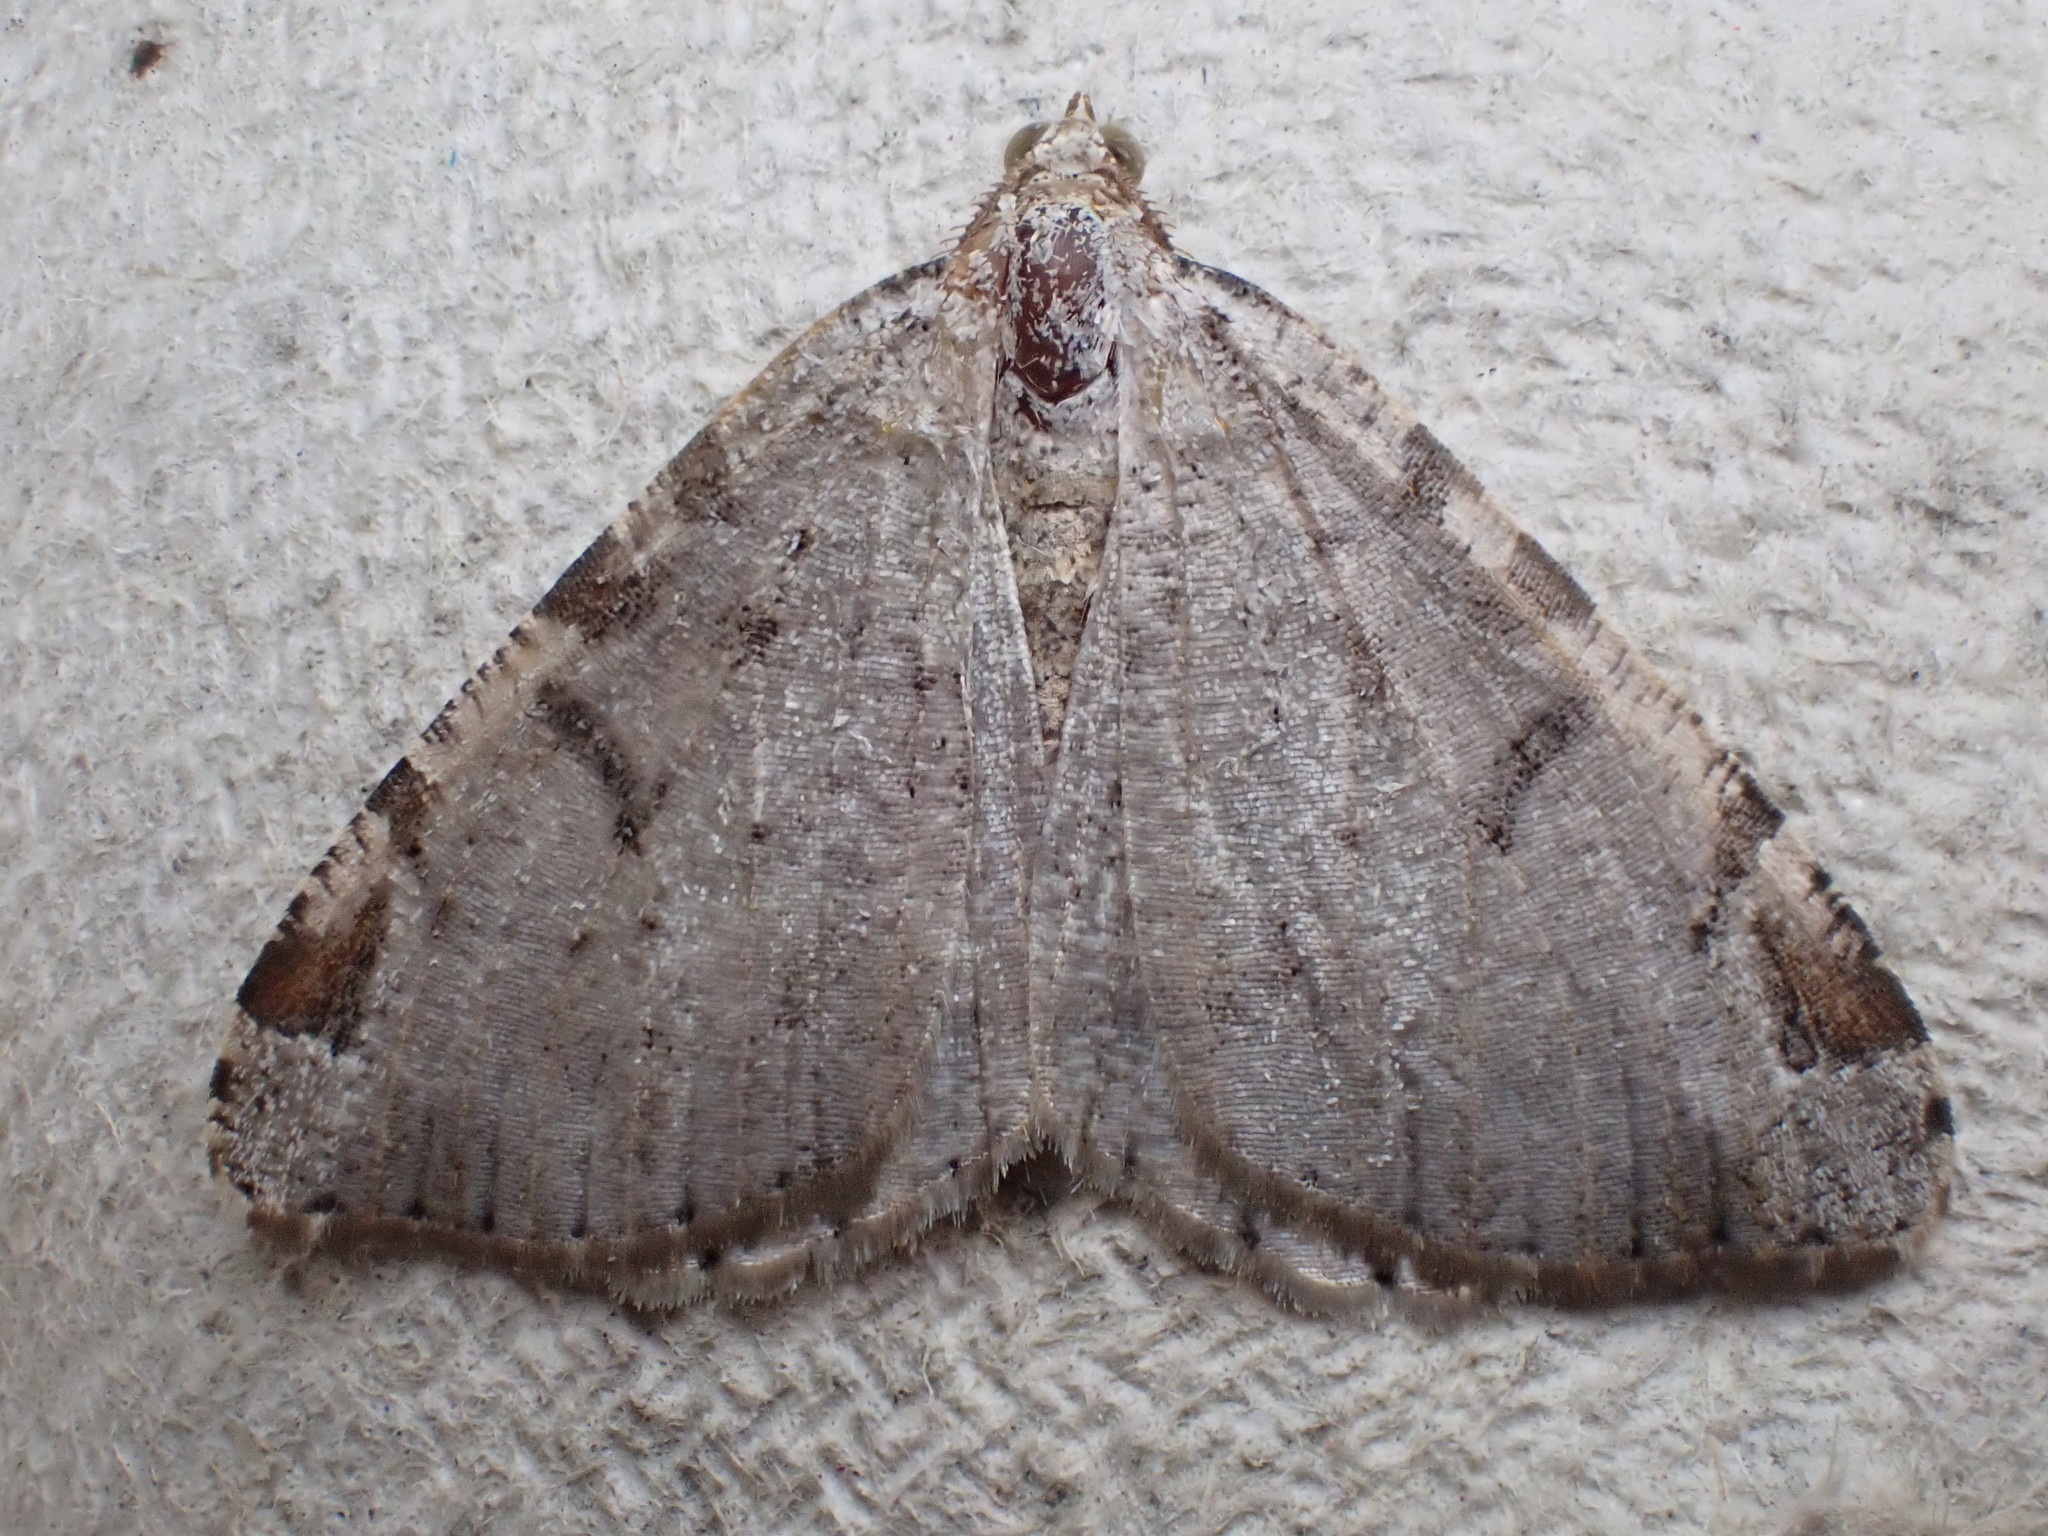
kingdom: Animalia
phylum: Arthropoda
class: Insecta
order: Lepidoptera
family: Geometridae
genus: Macaria
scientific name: Macaria wauaria
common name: V-moth
